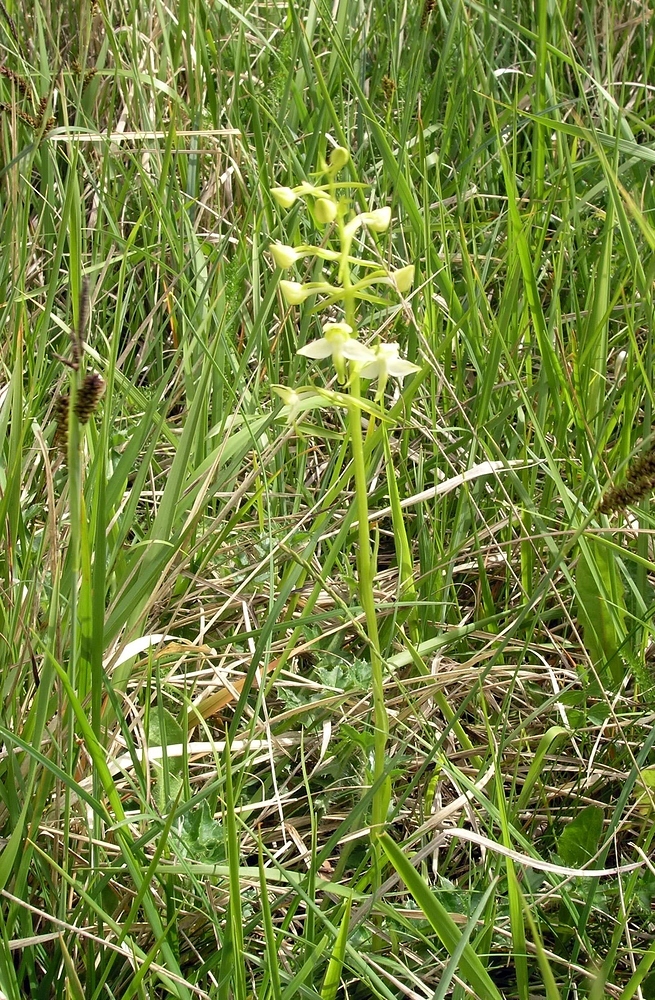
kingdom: Plantae
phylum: Tracheophyta
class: Liliopsida
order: Asparagales
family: Orchidaceae
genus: Platanthera
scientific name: Platanthera chlorantha
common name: Greater butterfly-orchid
